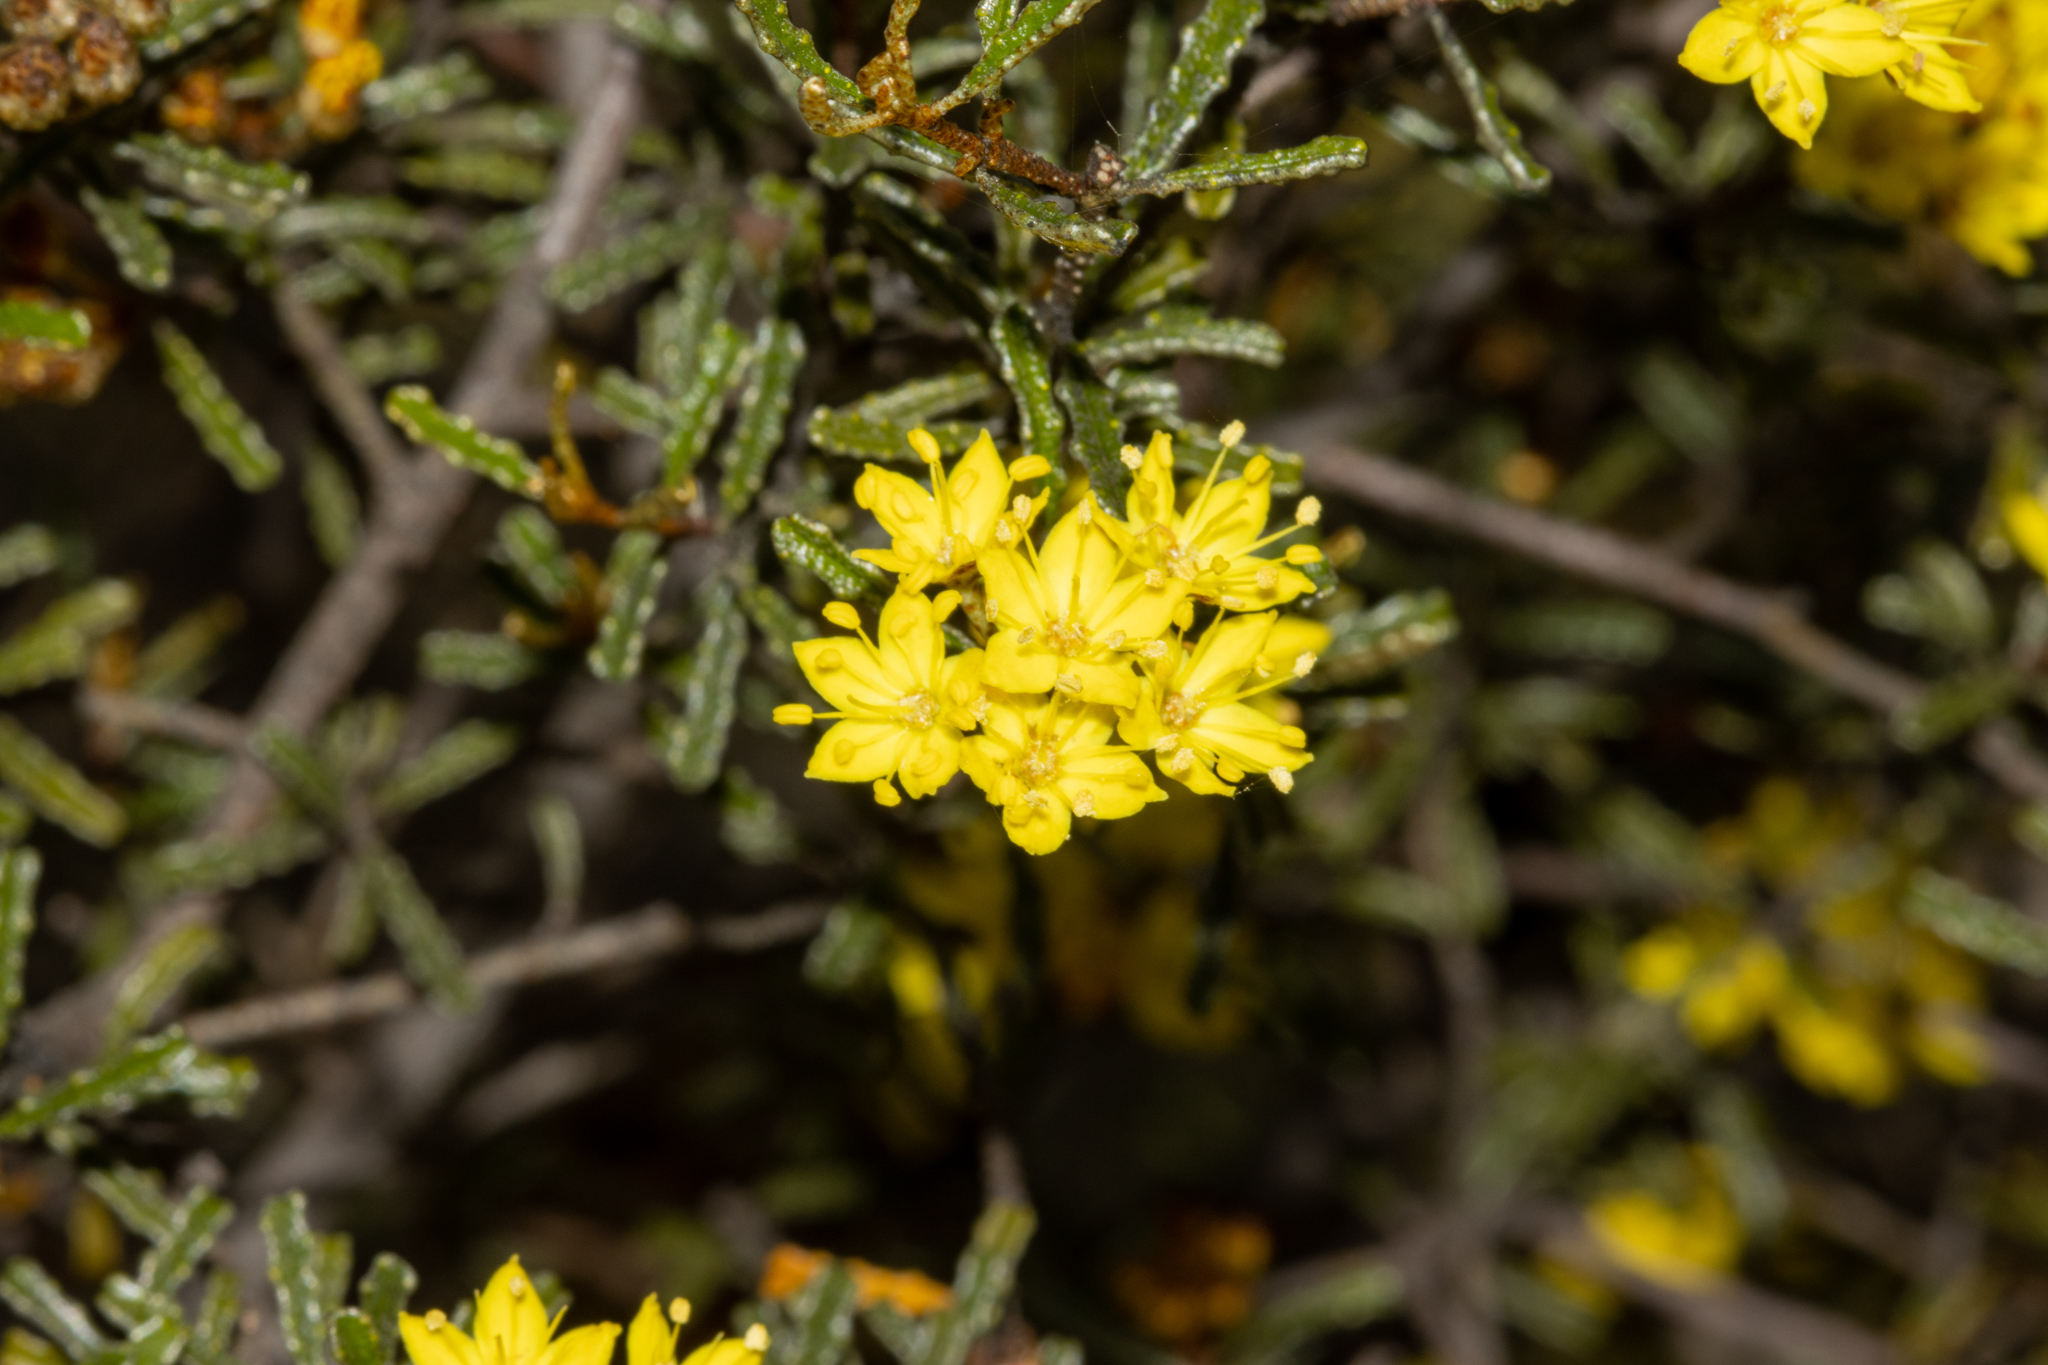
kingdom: Plantae
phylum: Tracheophyta
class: Magnoliopsida
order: Sapindales
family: Rutaceae
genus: Phebalium
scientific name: Phebalium bullatum
